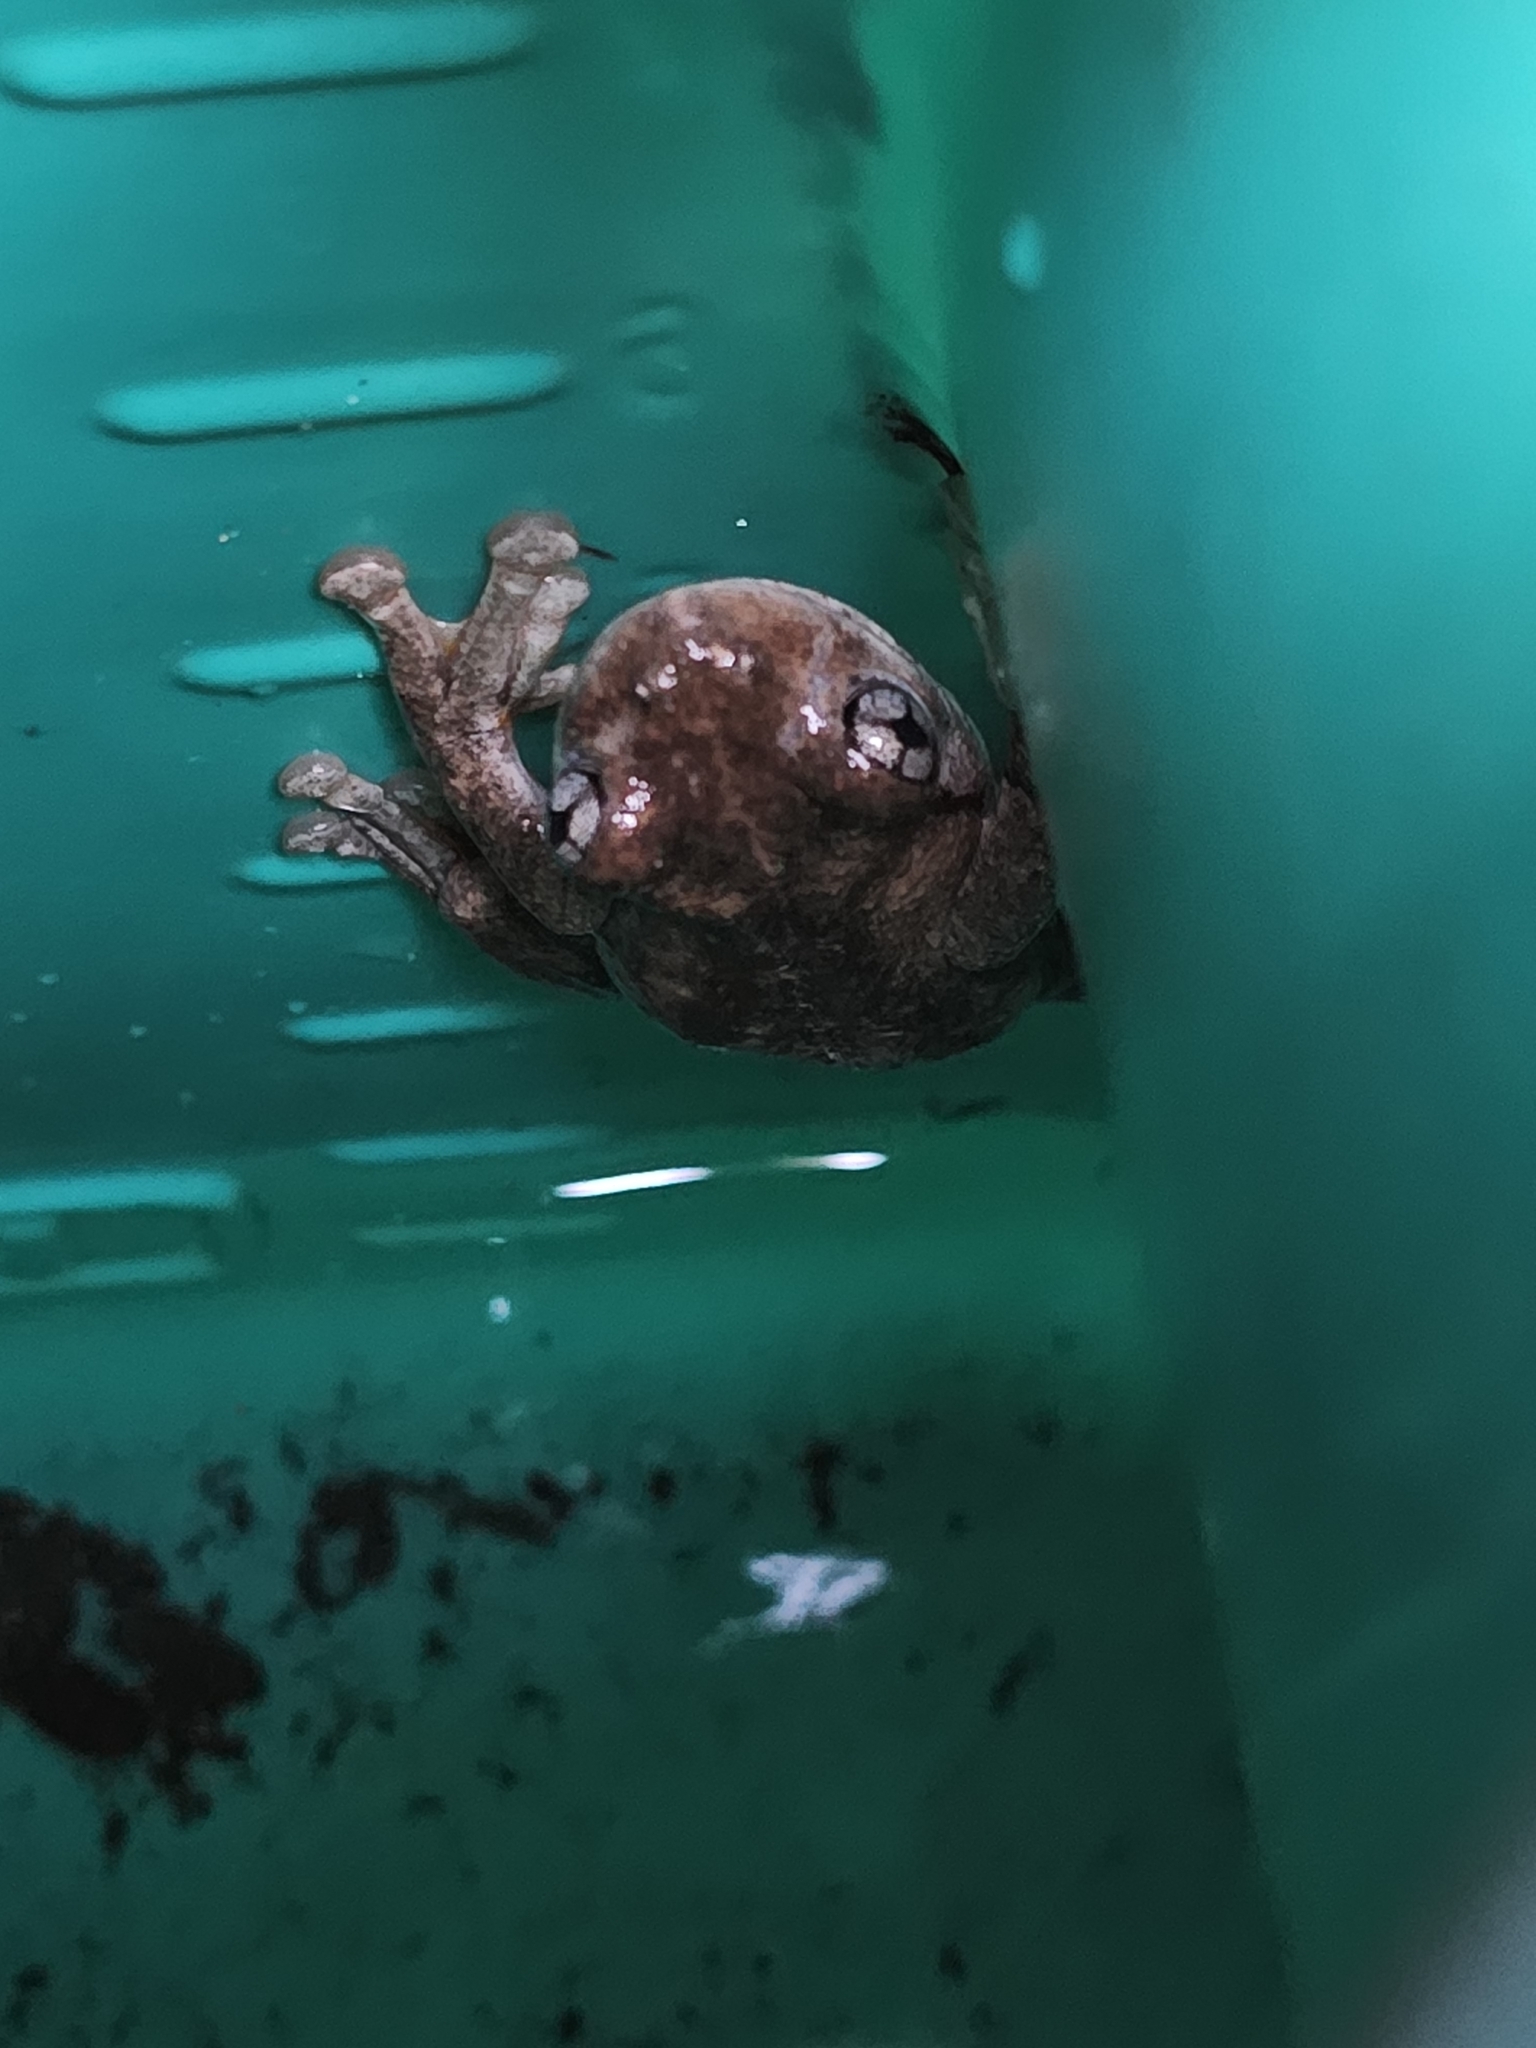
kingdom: Animalia
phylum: Chordata
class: Amphibia
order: Anura
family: Pelodryadidae
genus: Litoria
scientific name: Litoria peronii
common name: Emerald spotted treefrog
